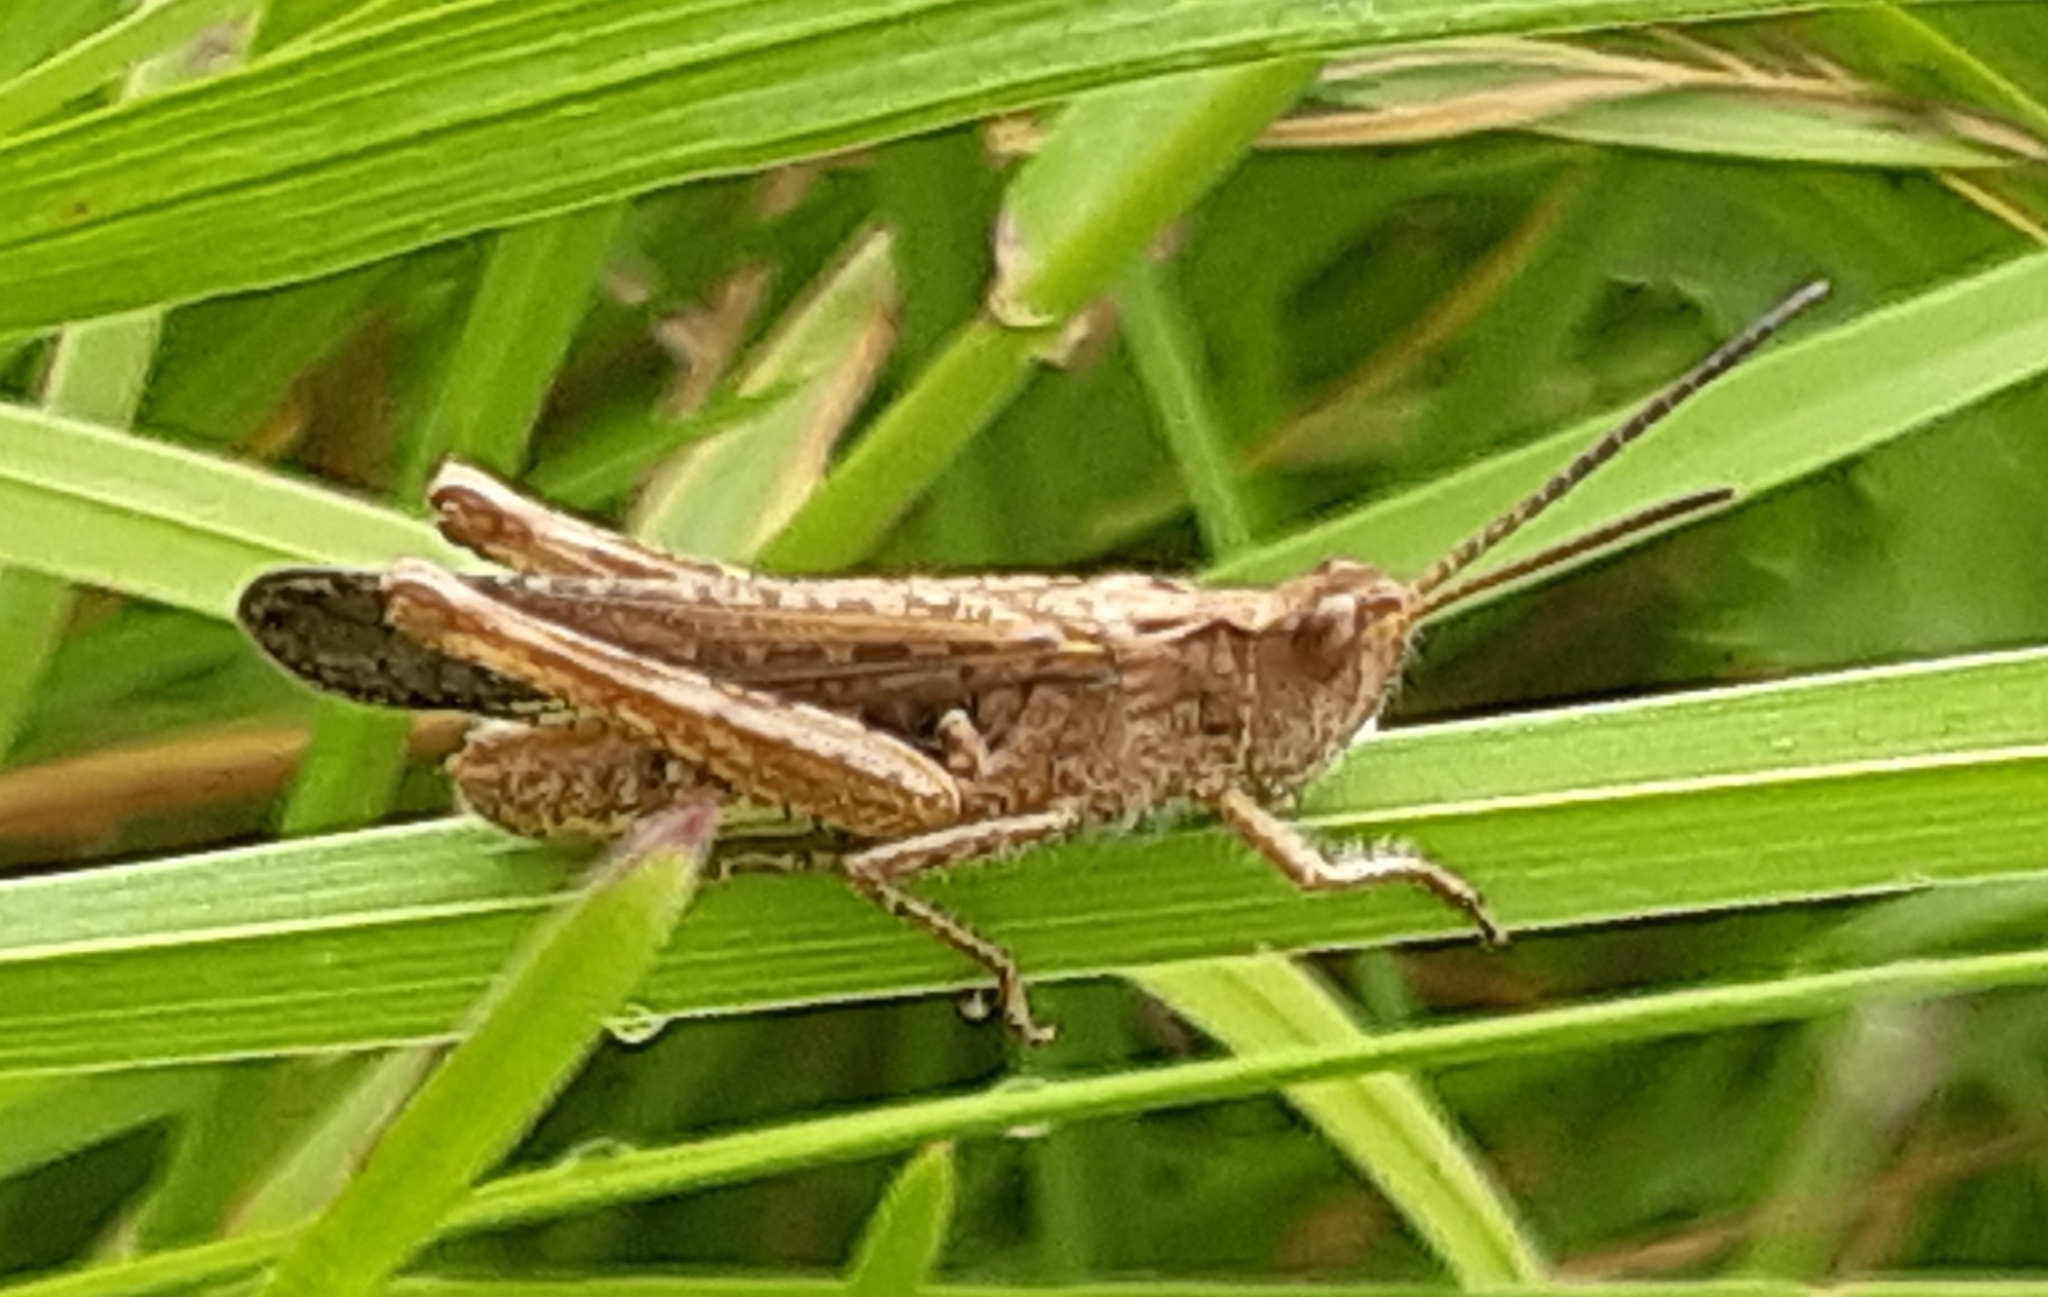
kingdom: Animalia
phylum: Arthropoda
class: Insecta
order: Orthoptera
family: Acrididae
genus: Chorthippus
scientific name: Chorthippus brunneus
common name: Field grasshopper
